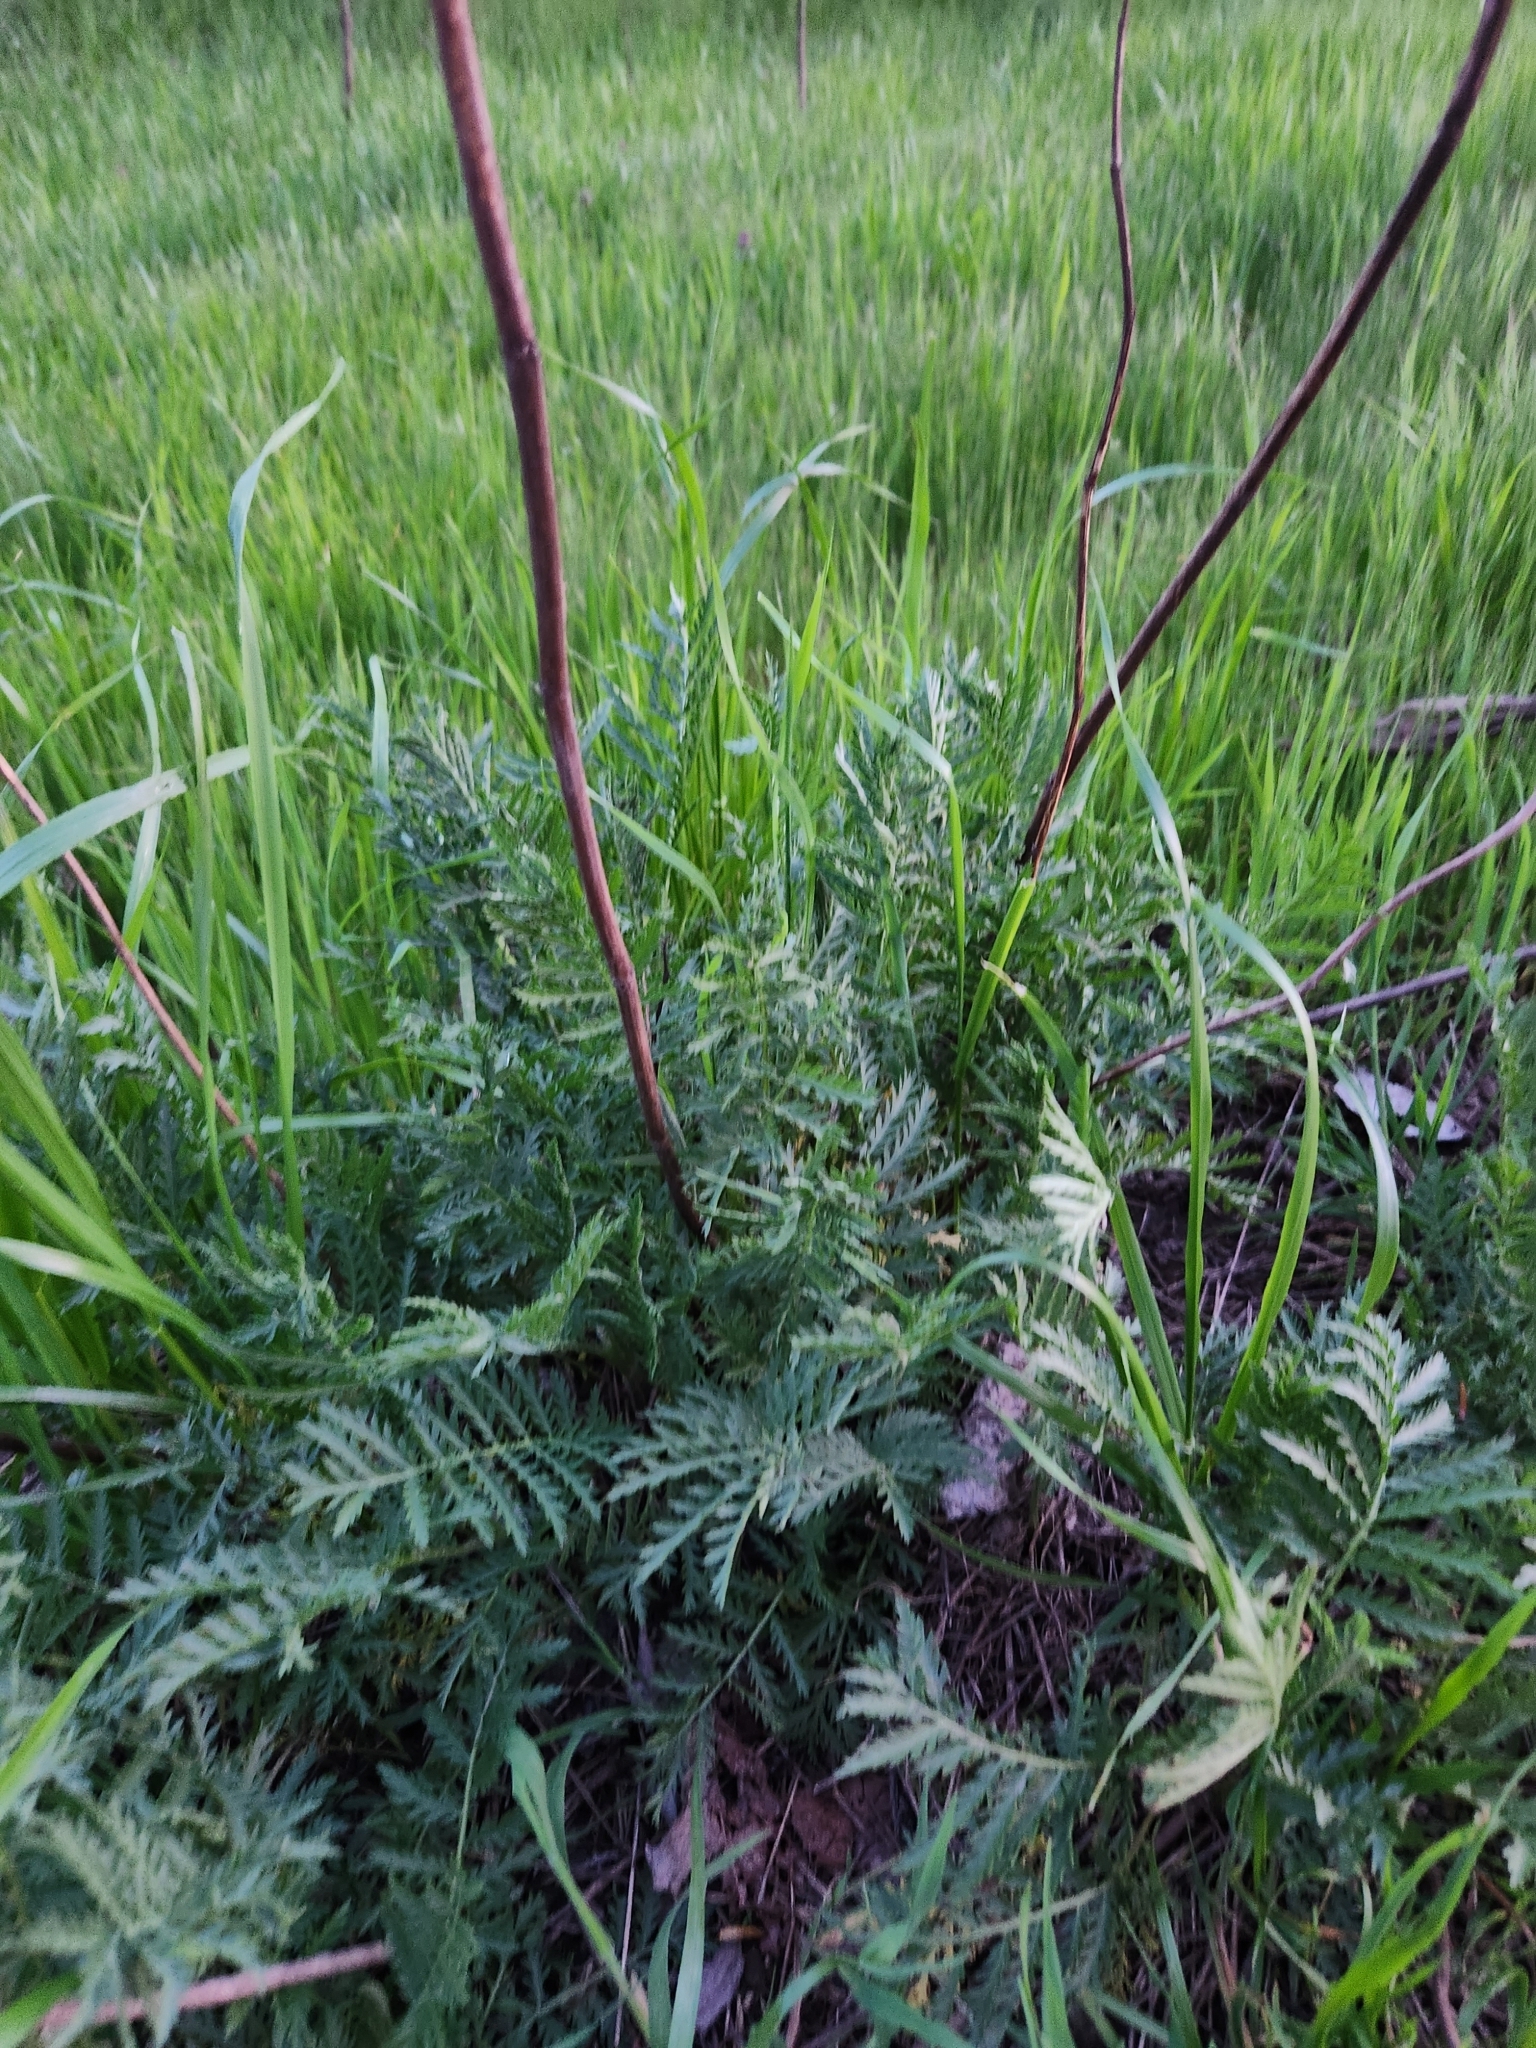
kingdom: Plantae
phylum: Tracheophyta
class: Magnoliopsida
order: Asterales
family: Asteraceae
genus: Tanacetum
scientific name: Tanacetum vulgare
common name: Common tansy
